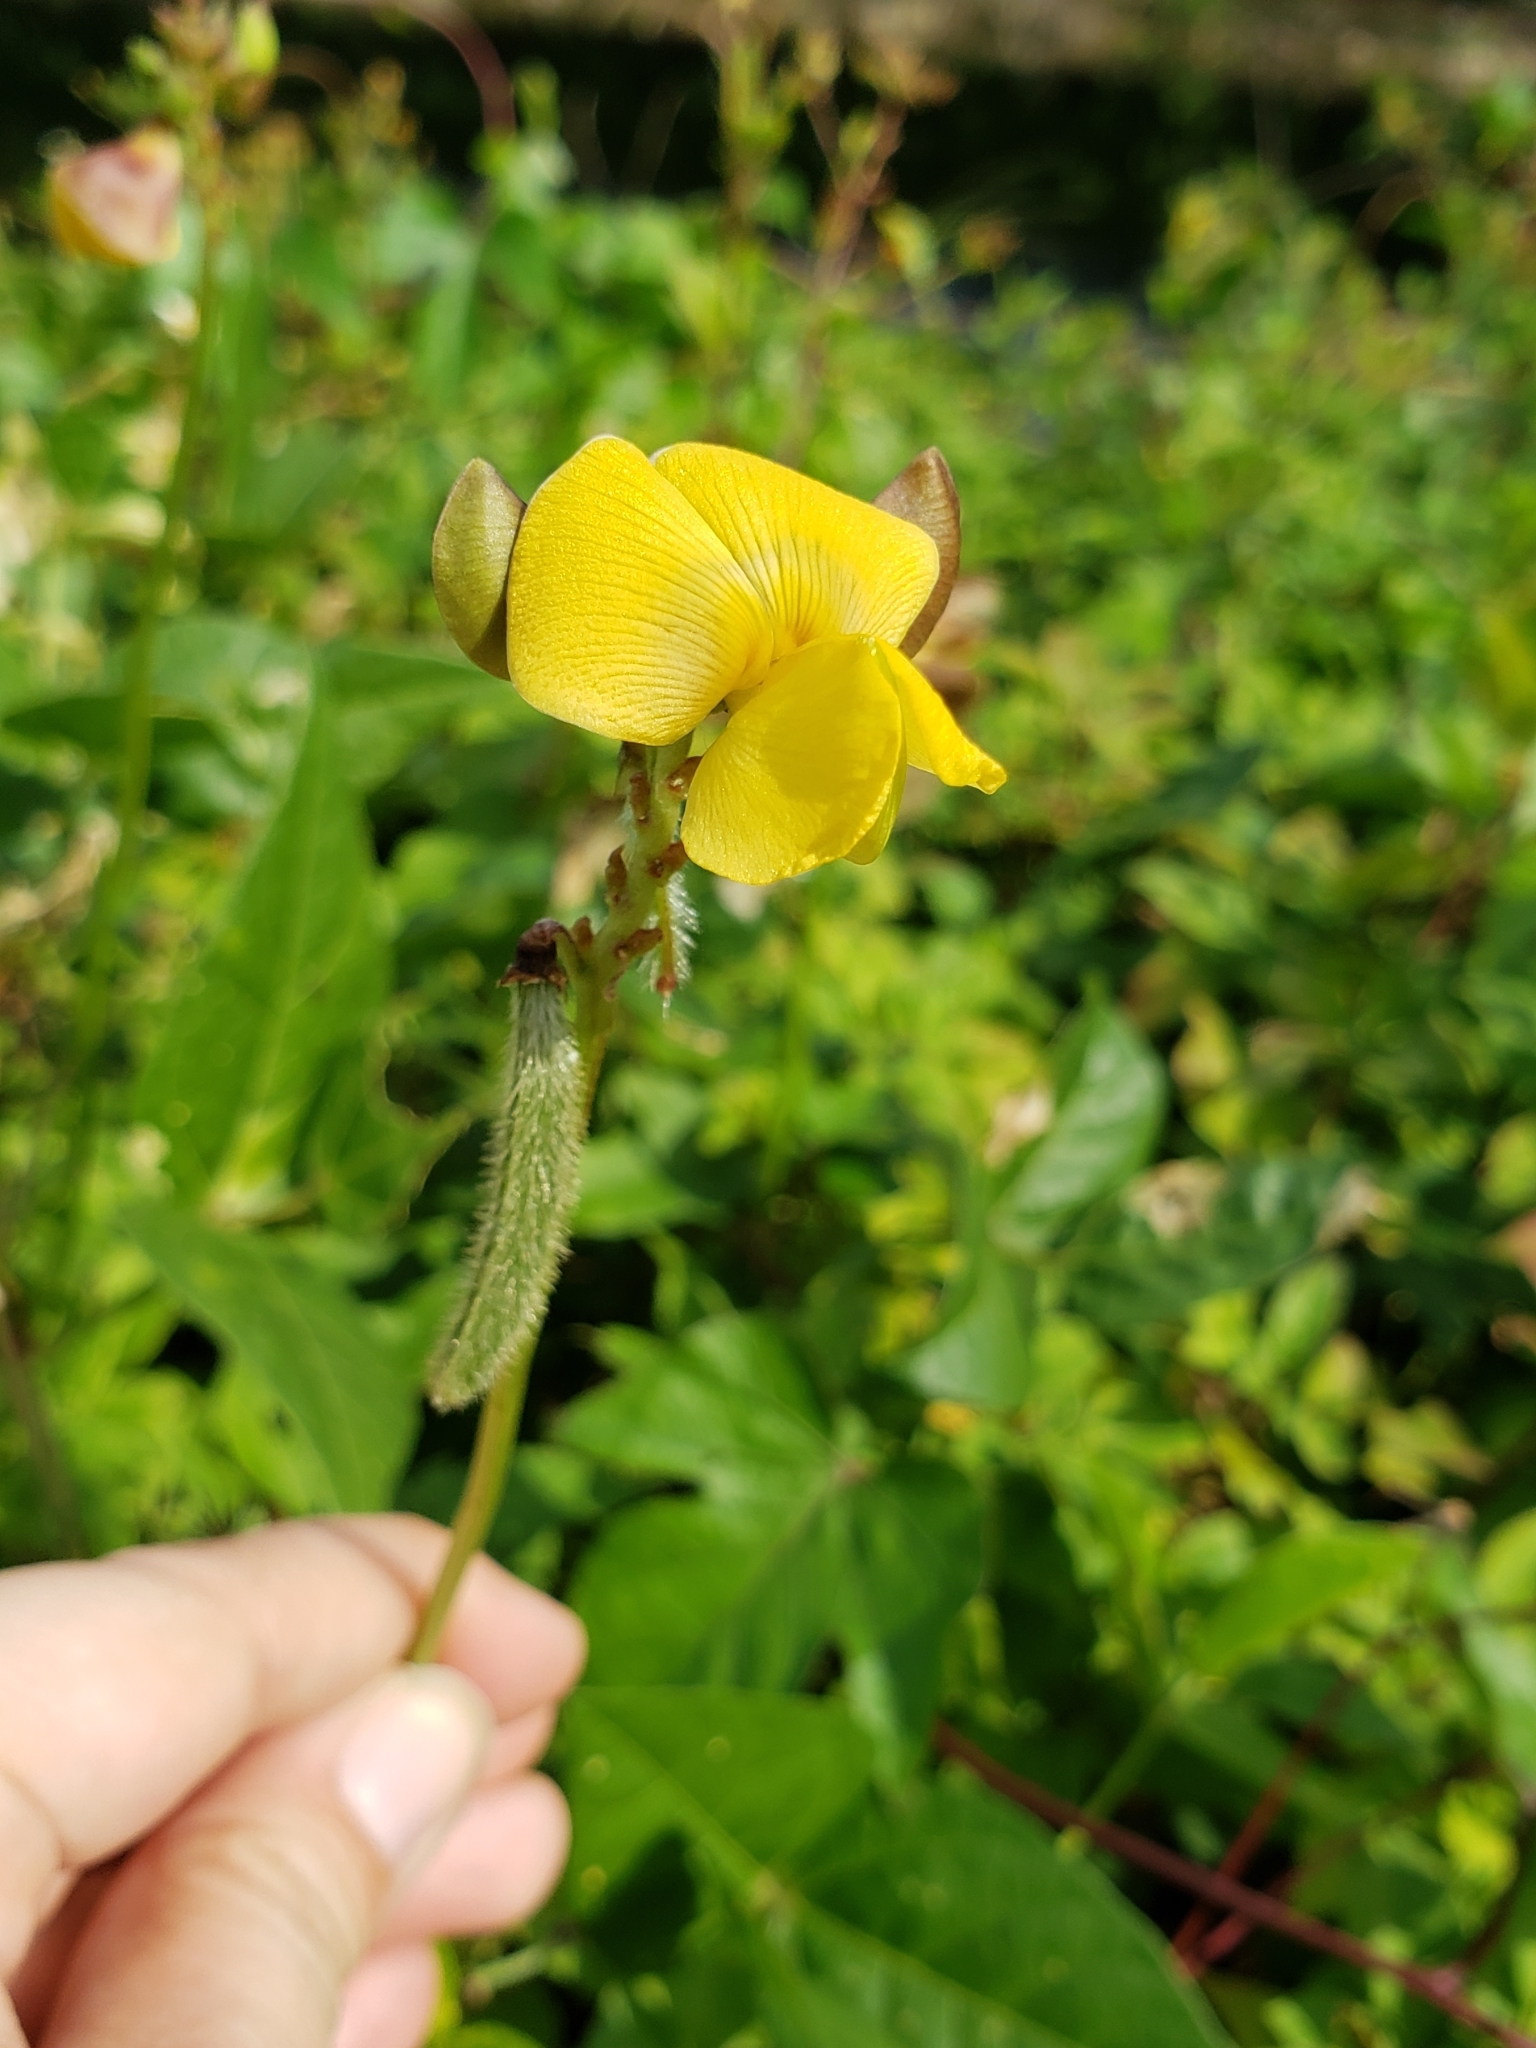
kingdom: Plantae
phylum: Tracheophyta
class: Magnoliopsida
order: Fabales
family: Fabaceae
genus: Vigna
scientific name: Vigna luteola
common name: Hairypod cowpea
